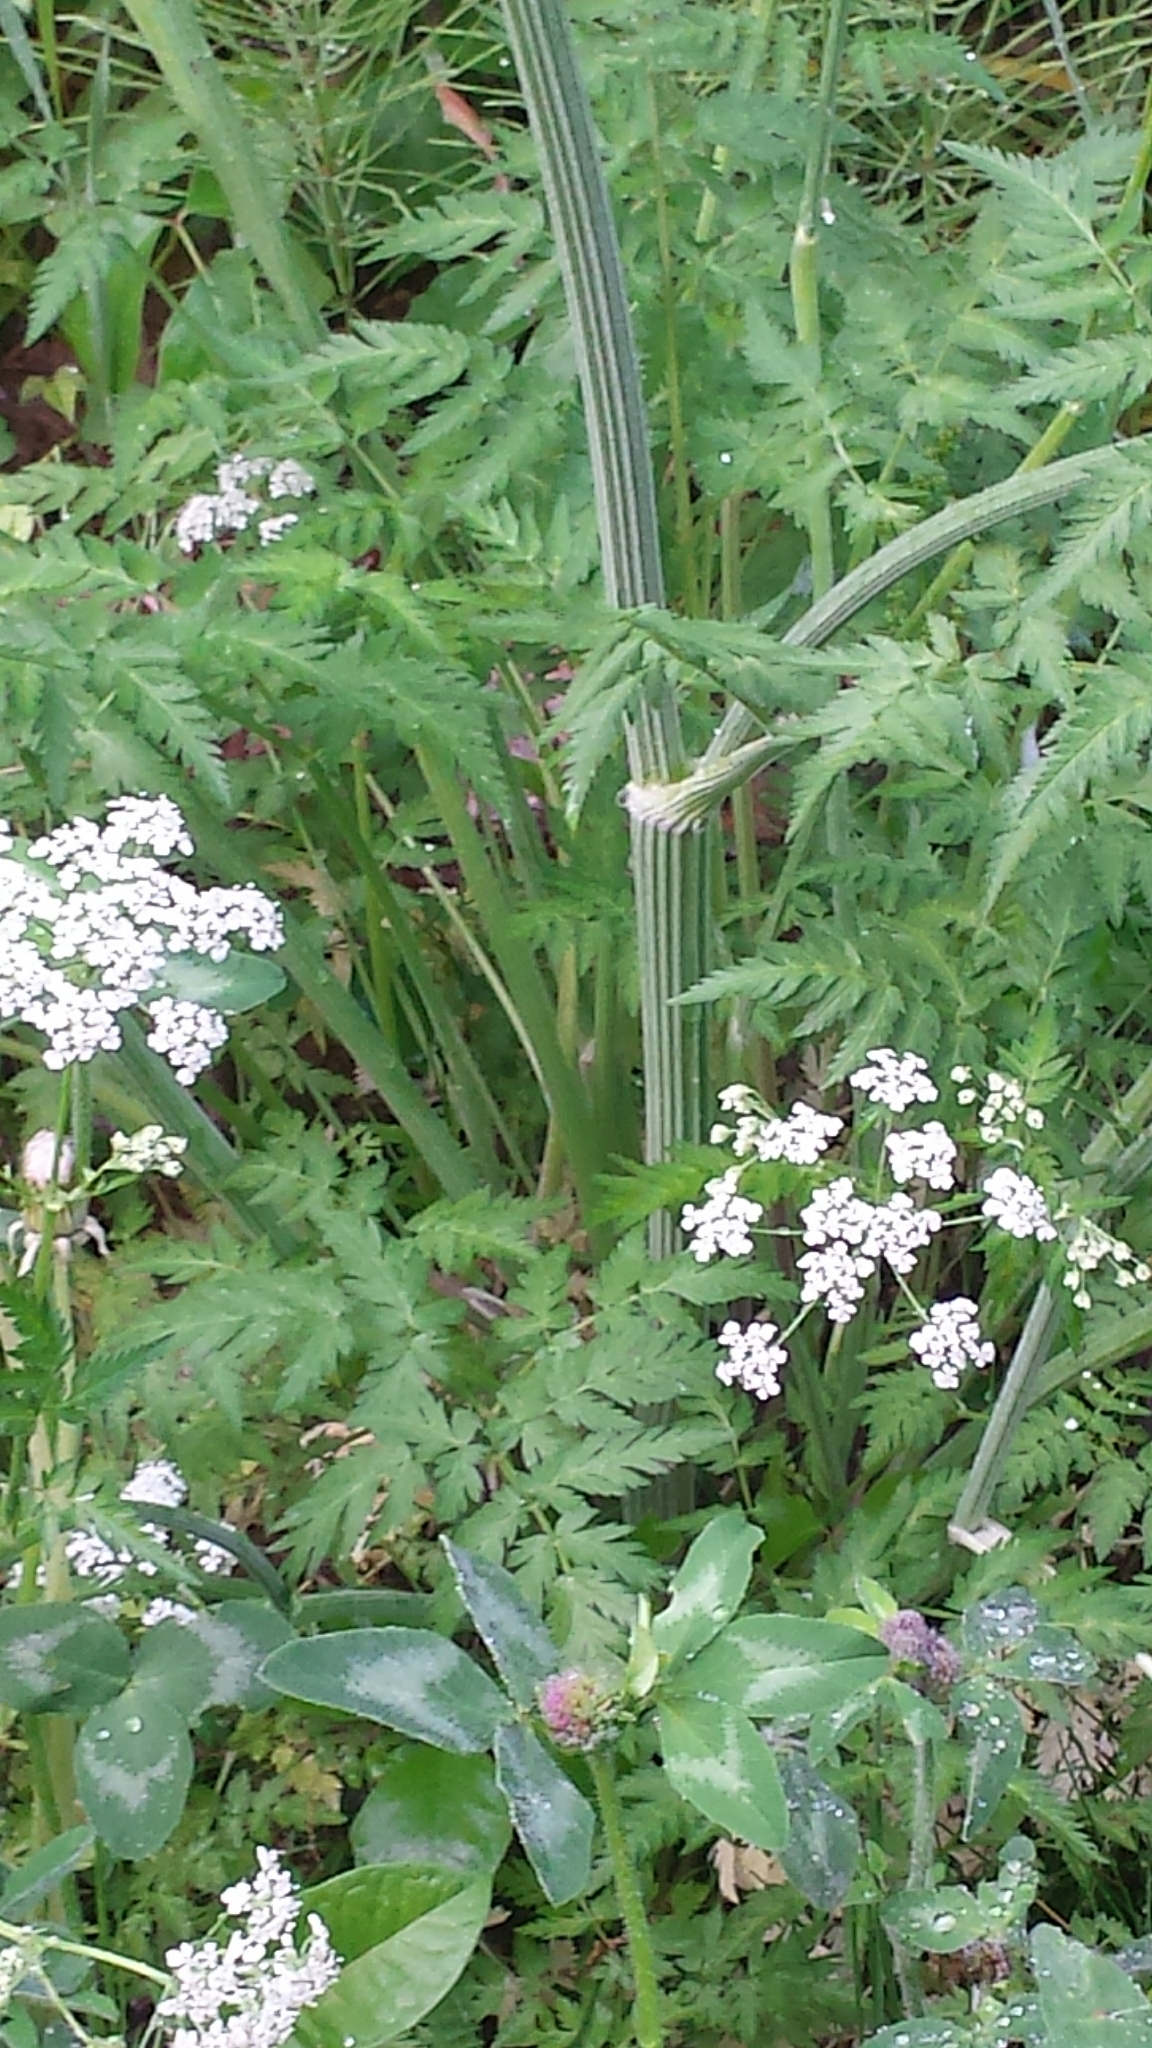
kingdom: Plantae
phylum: Tracheophyta
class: Magnoliopsida
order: Apiales
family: Apiaceae
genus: Anthriscus
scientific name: Anthriscus sylvestris
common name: Cow parsley
